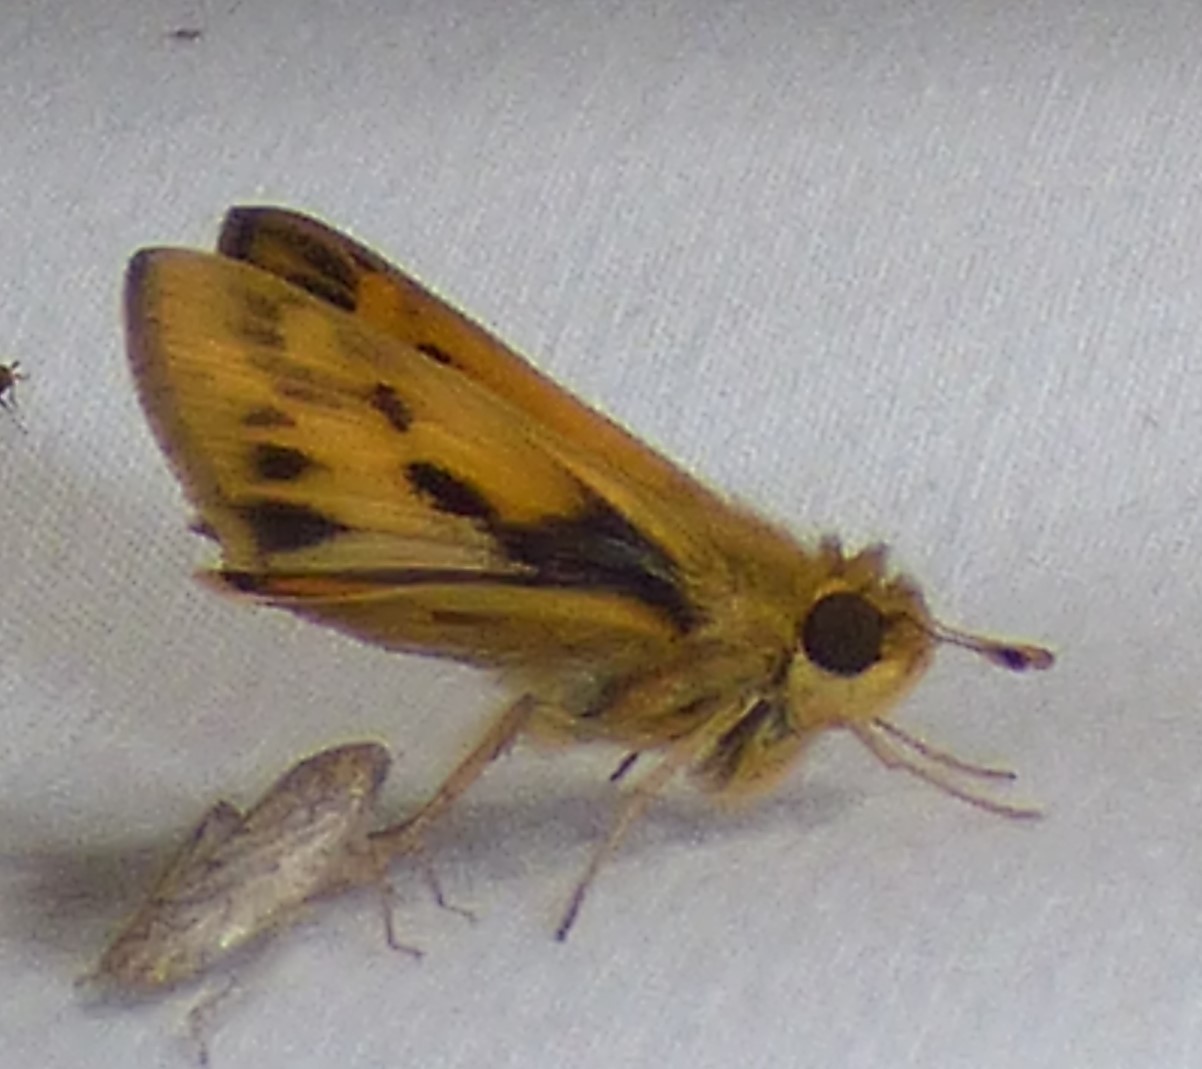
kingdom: Animalia
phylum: Arthropoda
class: Insecta
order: Lepidoptera
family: Hesperiidae
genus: Hylephila
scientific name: Hylephila phyleus
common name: Fiery skipper
